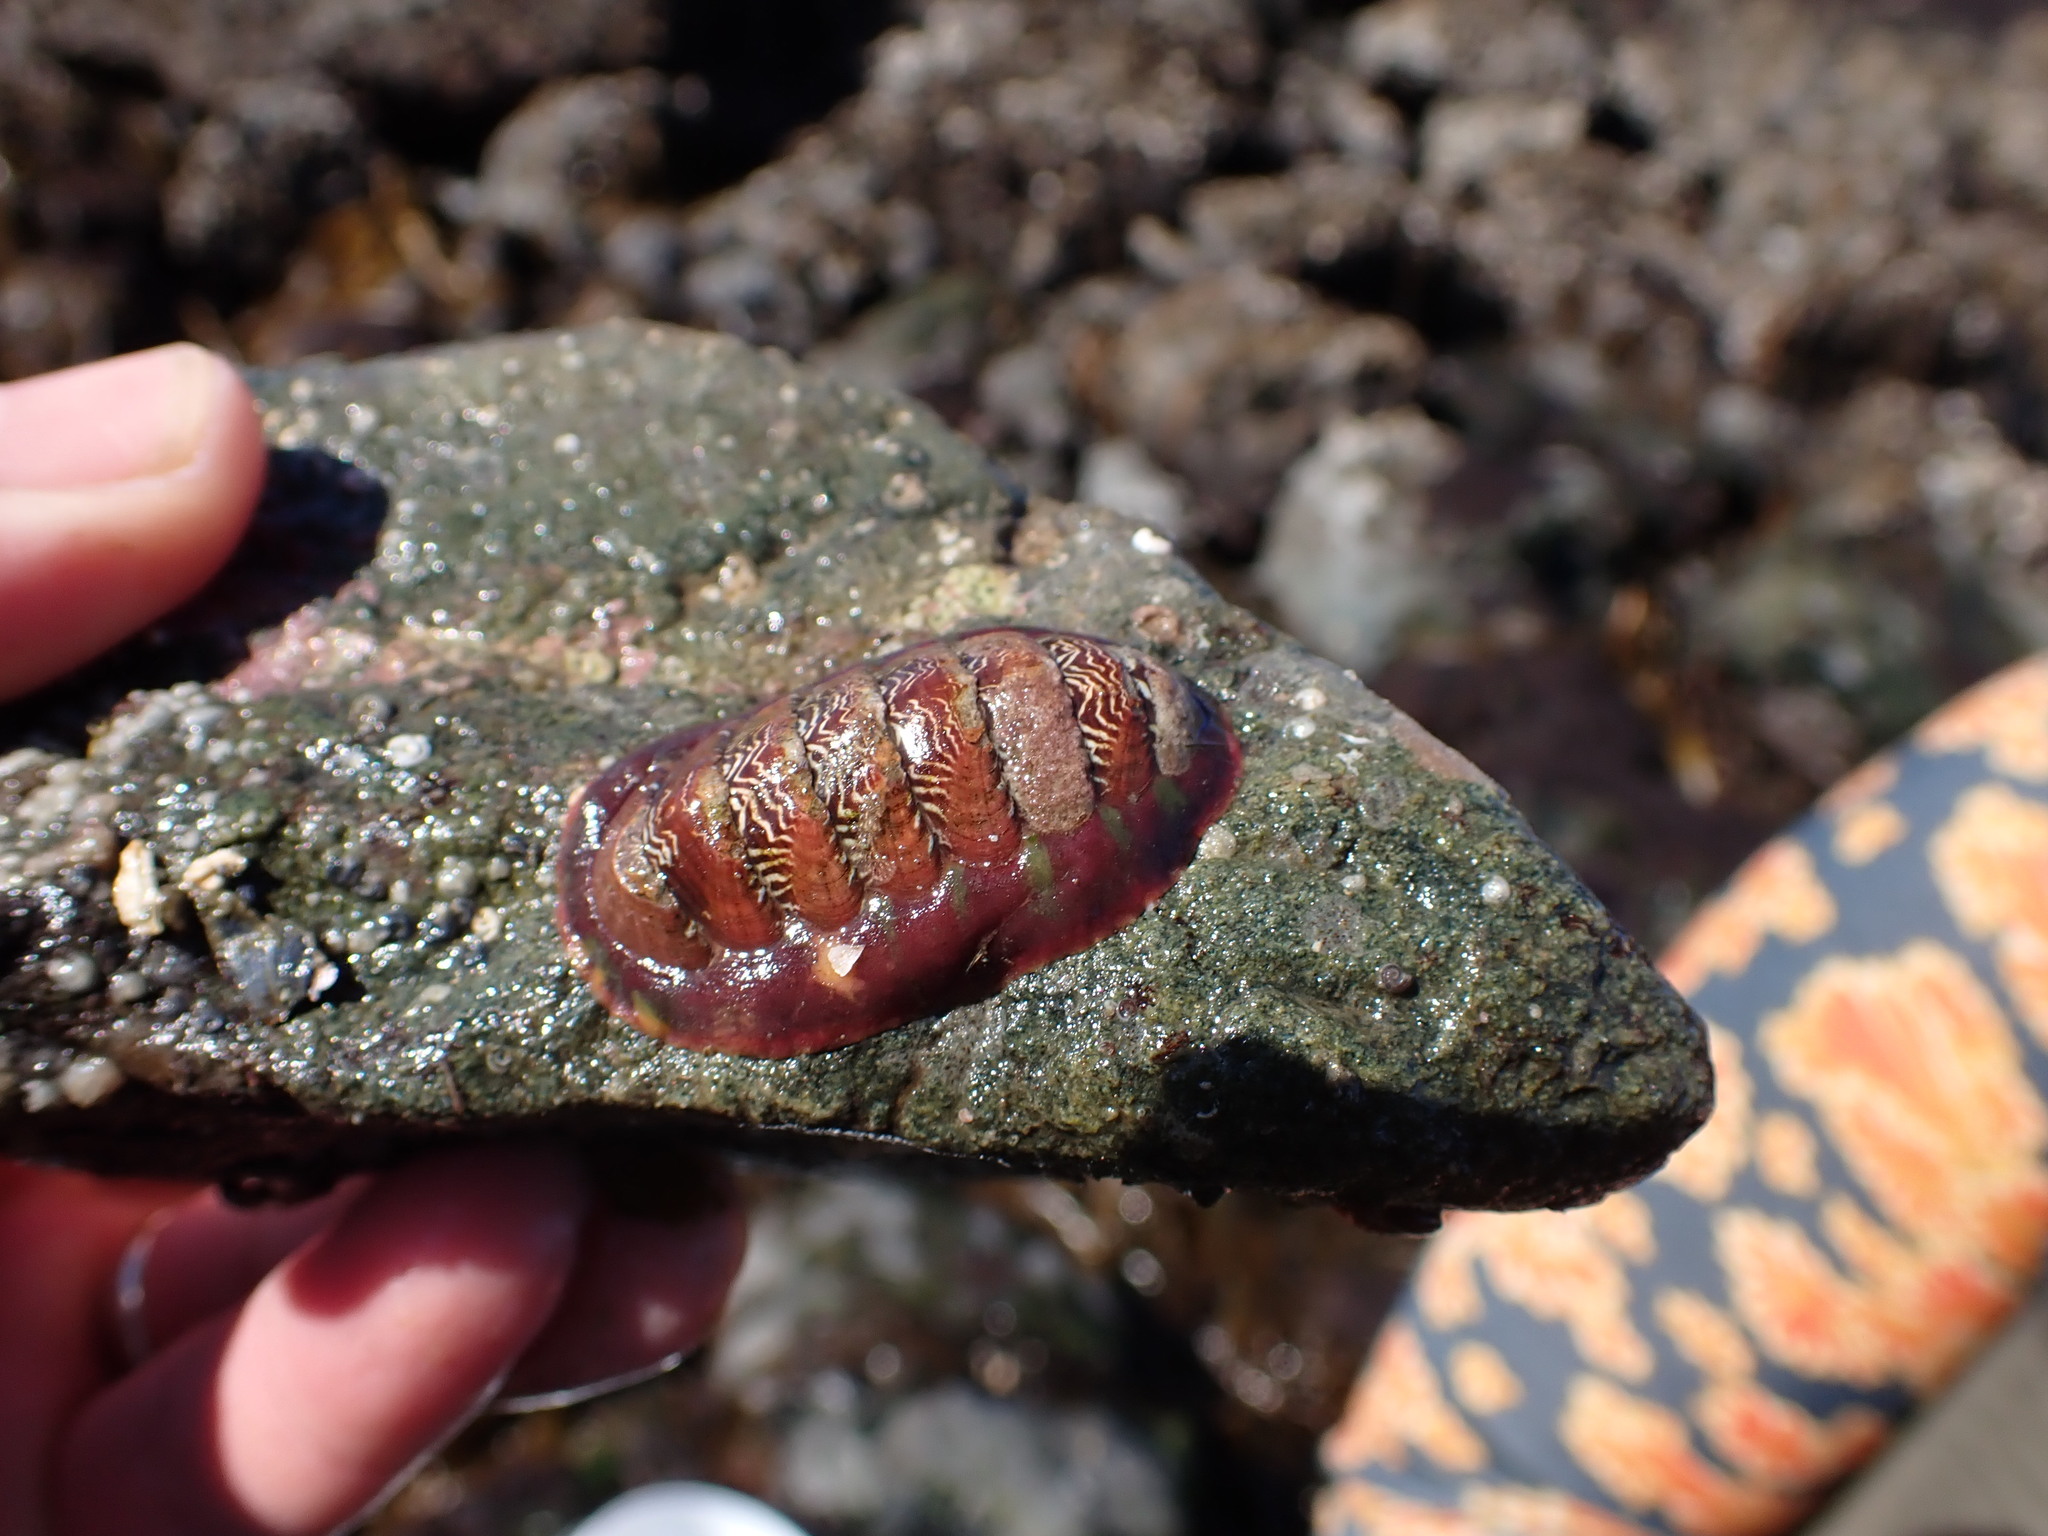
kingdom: Animalia
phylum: Mollusca
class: Polyplacophora
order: Chitonida
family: Tonicellidae
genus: Tonicella
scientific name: Tonicella insignis
